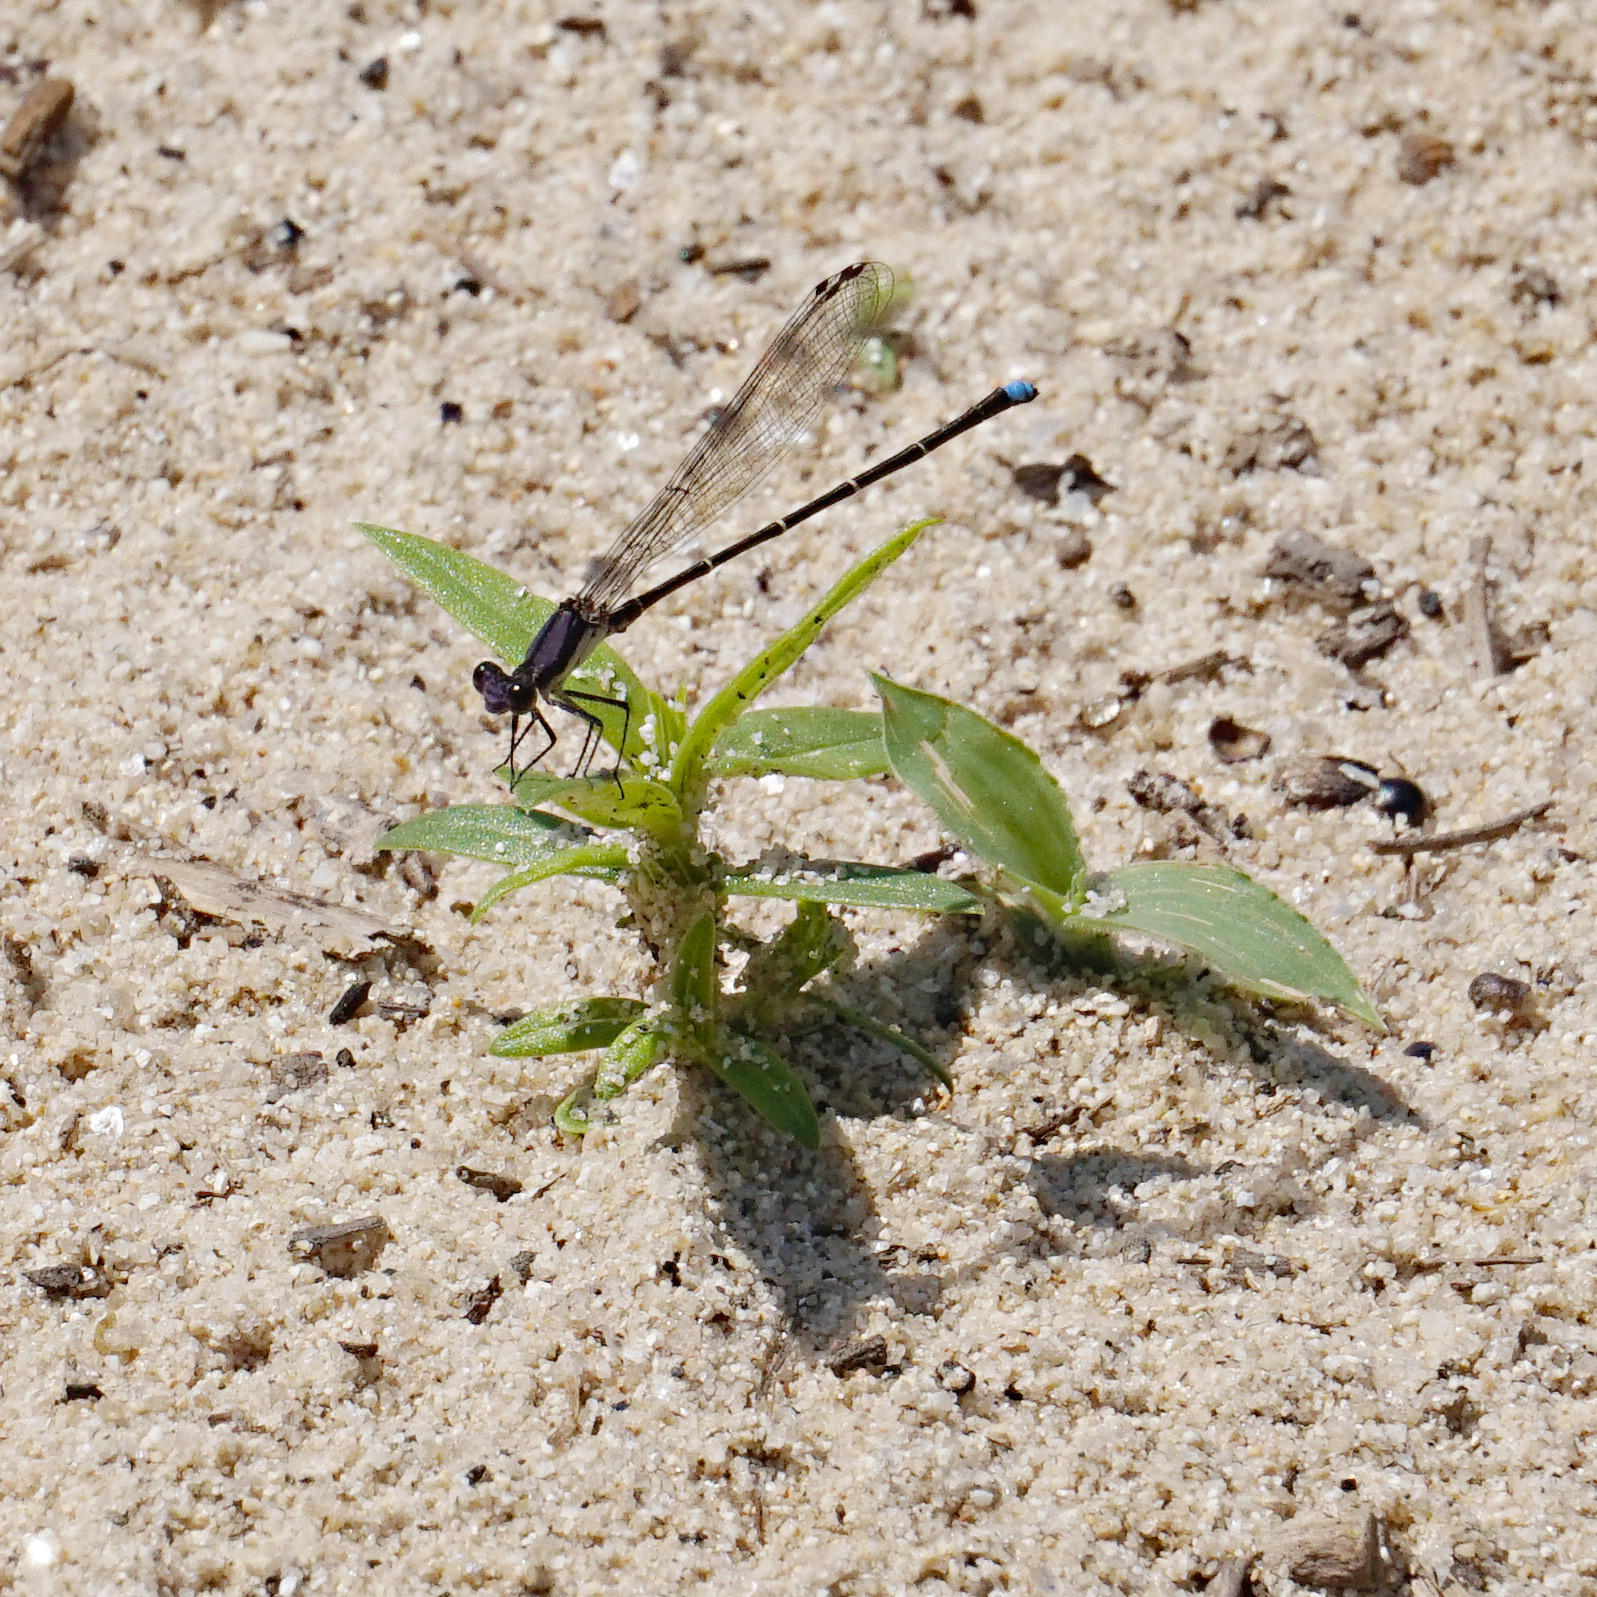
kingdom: Animalia
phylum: Arthropoda
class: Insecta
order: Odonata
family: Coenagrionidae
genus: Argia
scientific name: Argia tibialis
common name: Blue-tipped dancer
